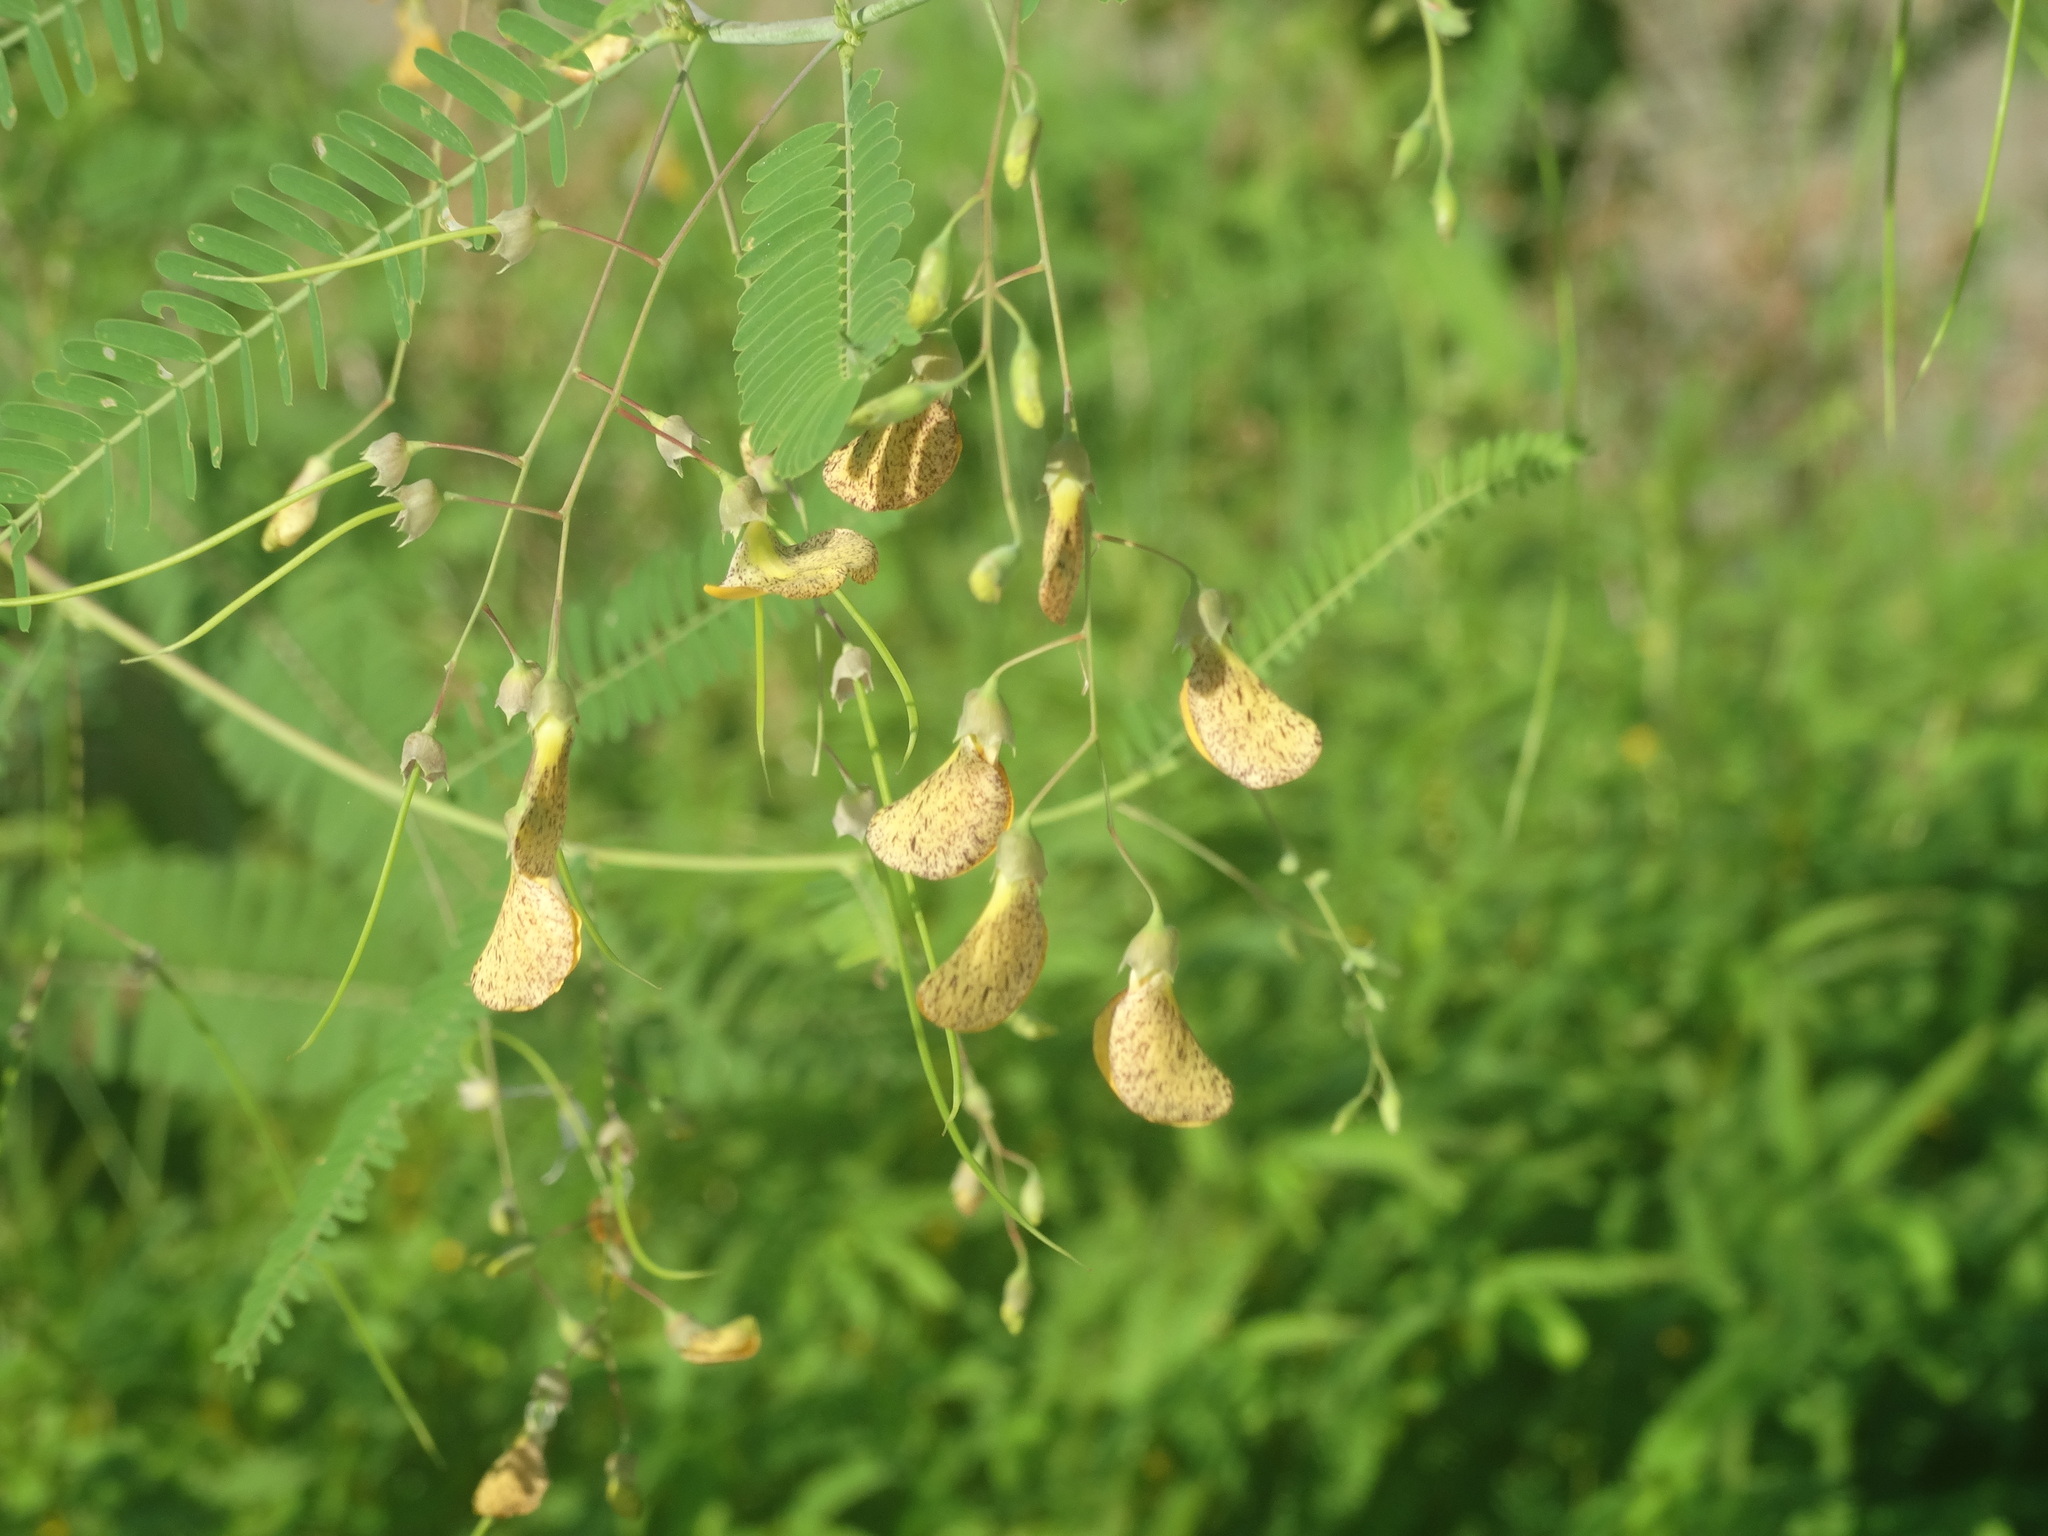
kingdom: Plantae
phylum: Tracheophyta
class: Magnoliopsida
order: Fabales
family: Fabaceae
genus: Sesbania
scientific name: Sesbania herbacea
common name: Bigpod sesbania
